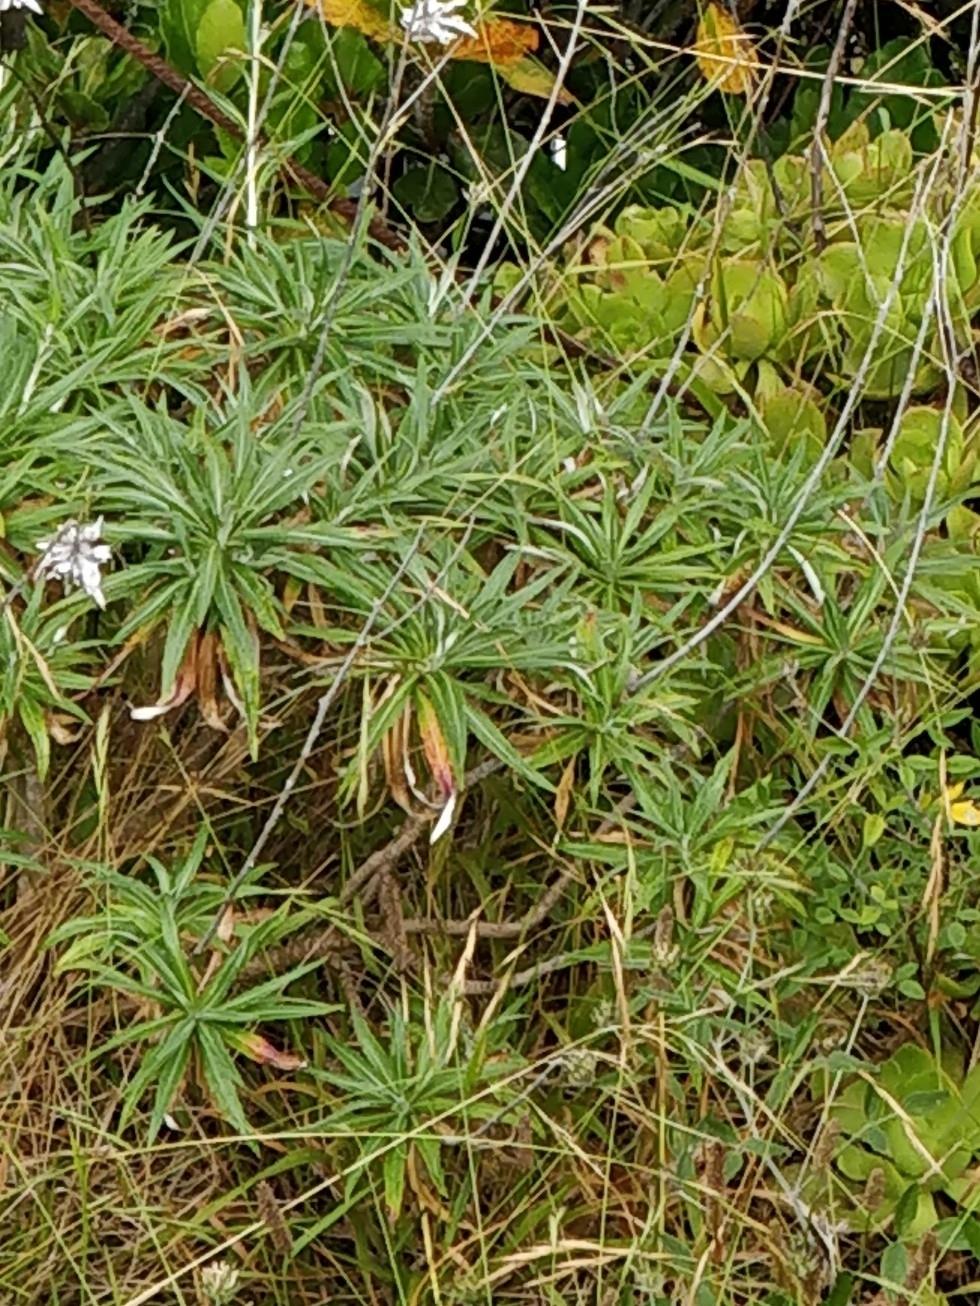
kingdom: Plantae
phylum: Tracheophyta
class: Magnoliopsida
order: Asterales
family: Asteraceae
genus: Carlina
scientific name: Carlina salicifolia
